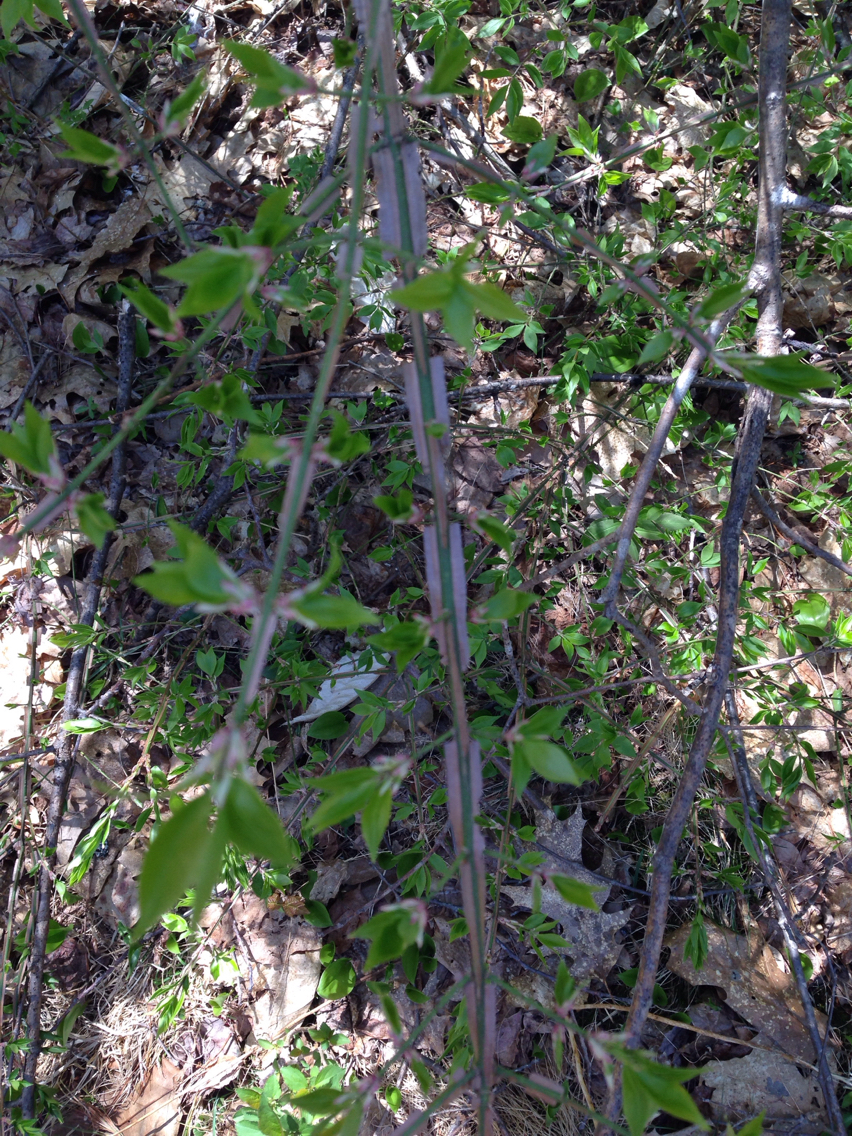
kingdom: Plantae
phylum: Tracheophyta
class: Magnoliopsida
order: Celastrales
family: Celastraceae
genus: Euonymus
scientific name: Euonymus alatus
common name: Winged euonymus
